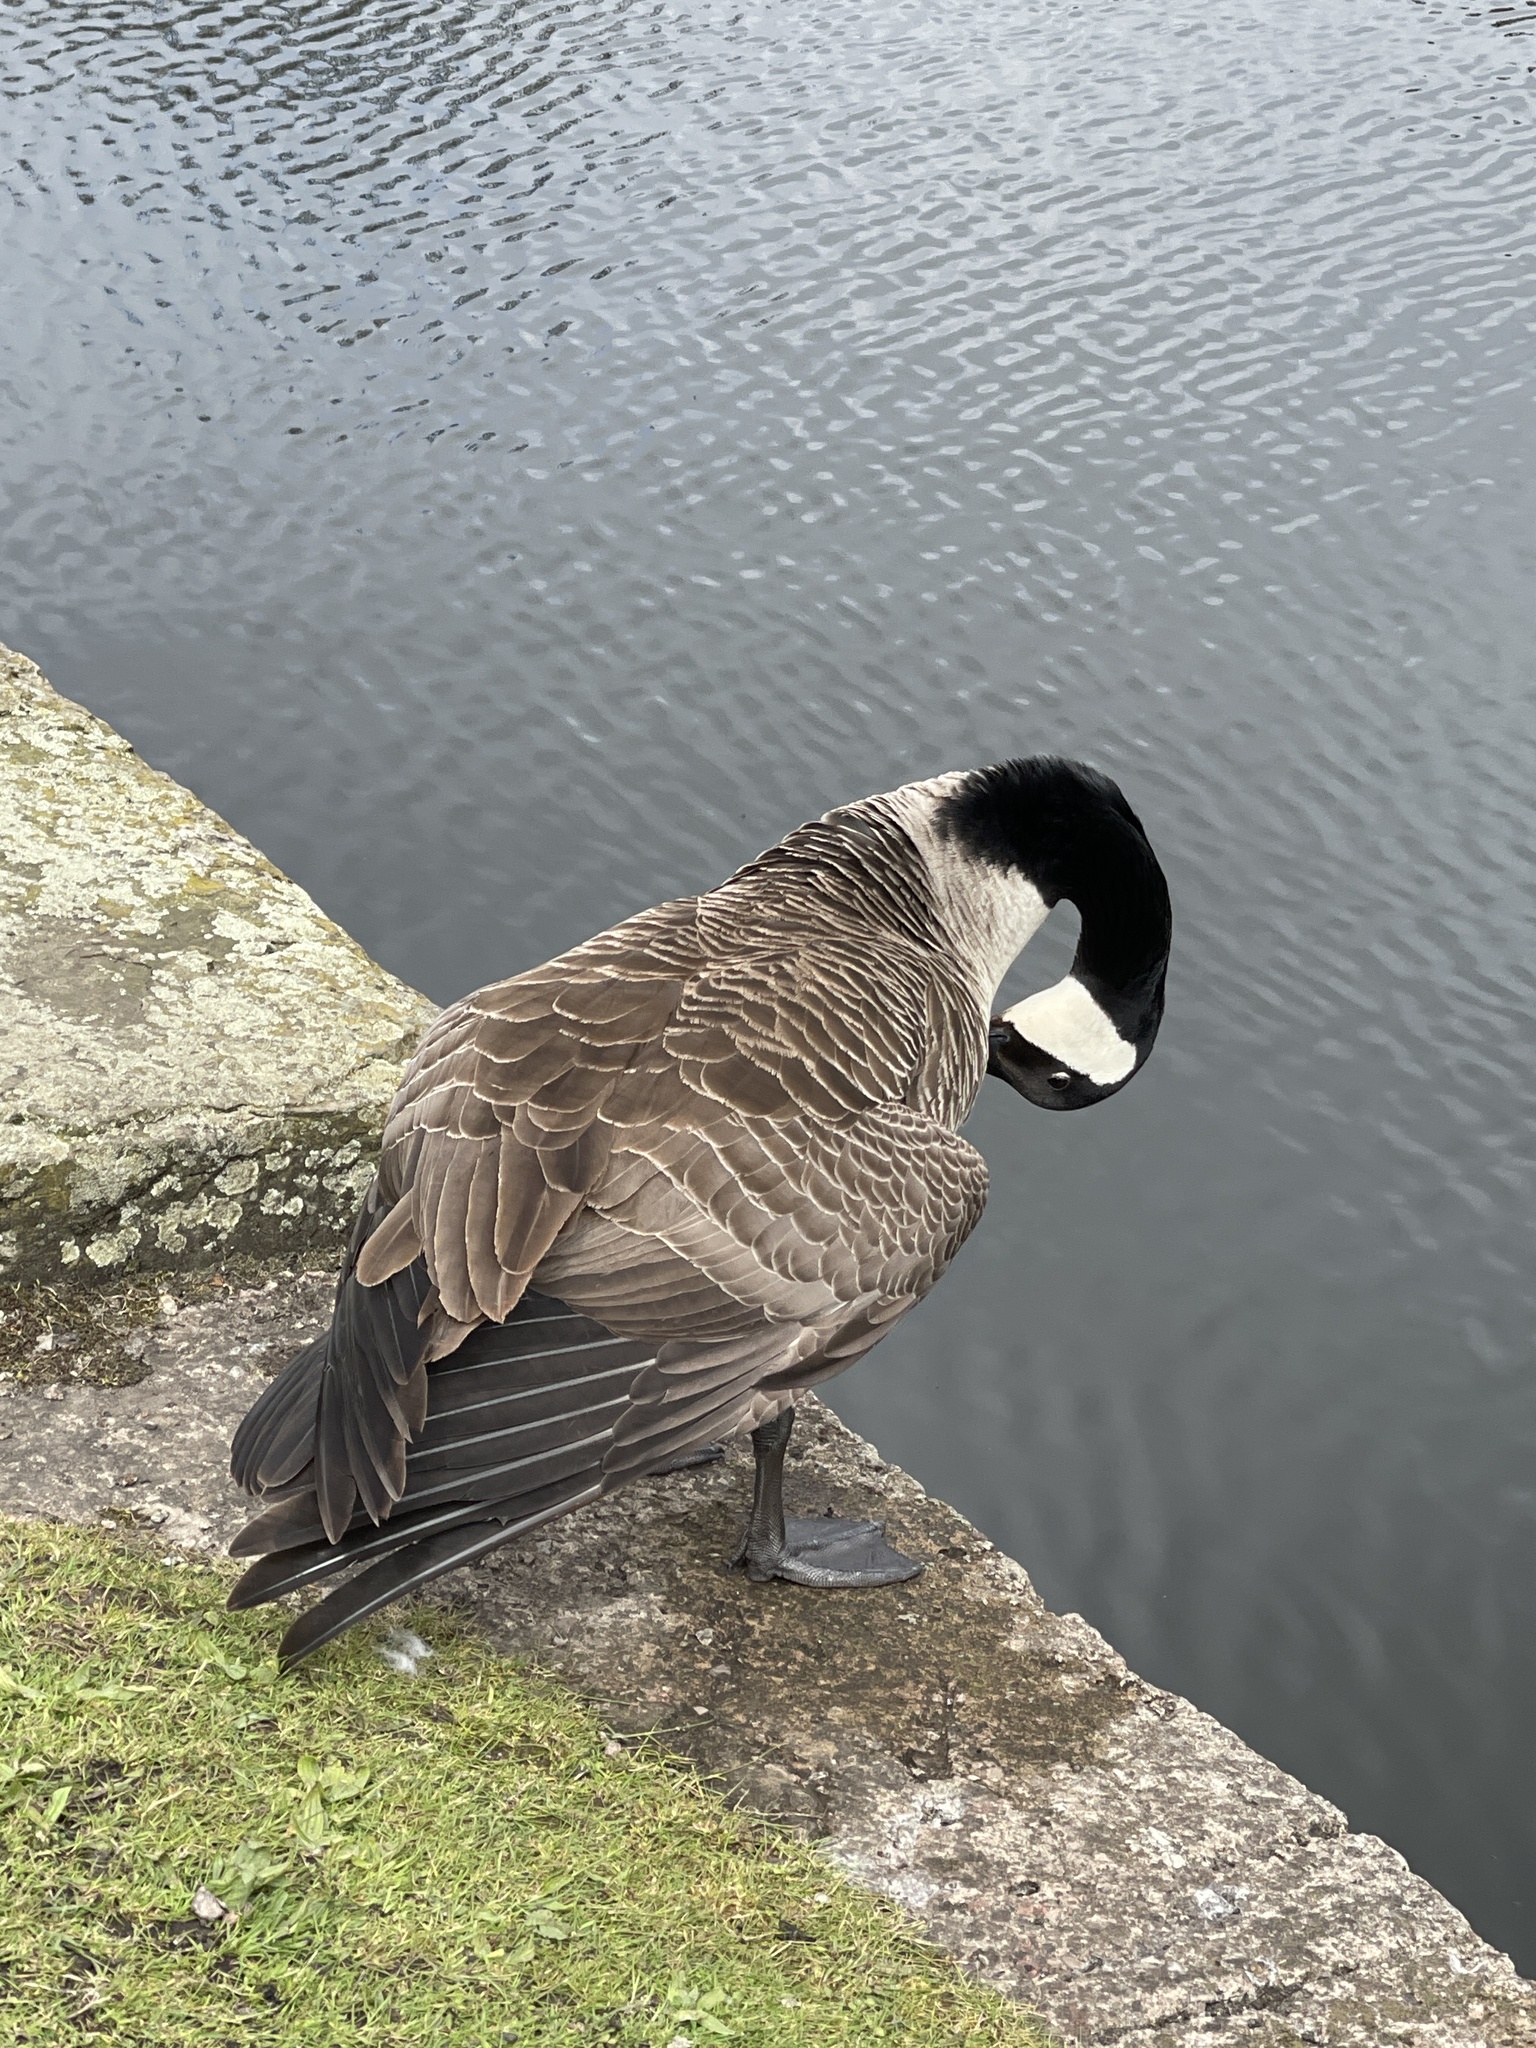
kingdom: Animalia
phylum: Chordata
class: Aves
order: Anseriformes
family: Anatidae
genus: Branta
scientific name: Branta canadensis
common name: Canada goose
